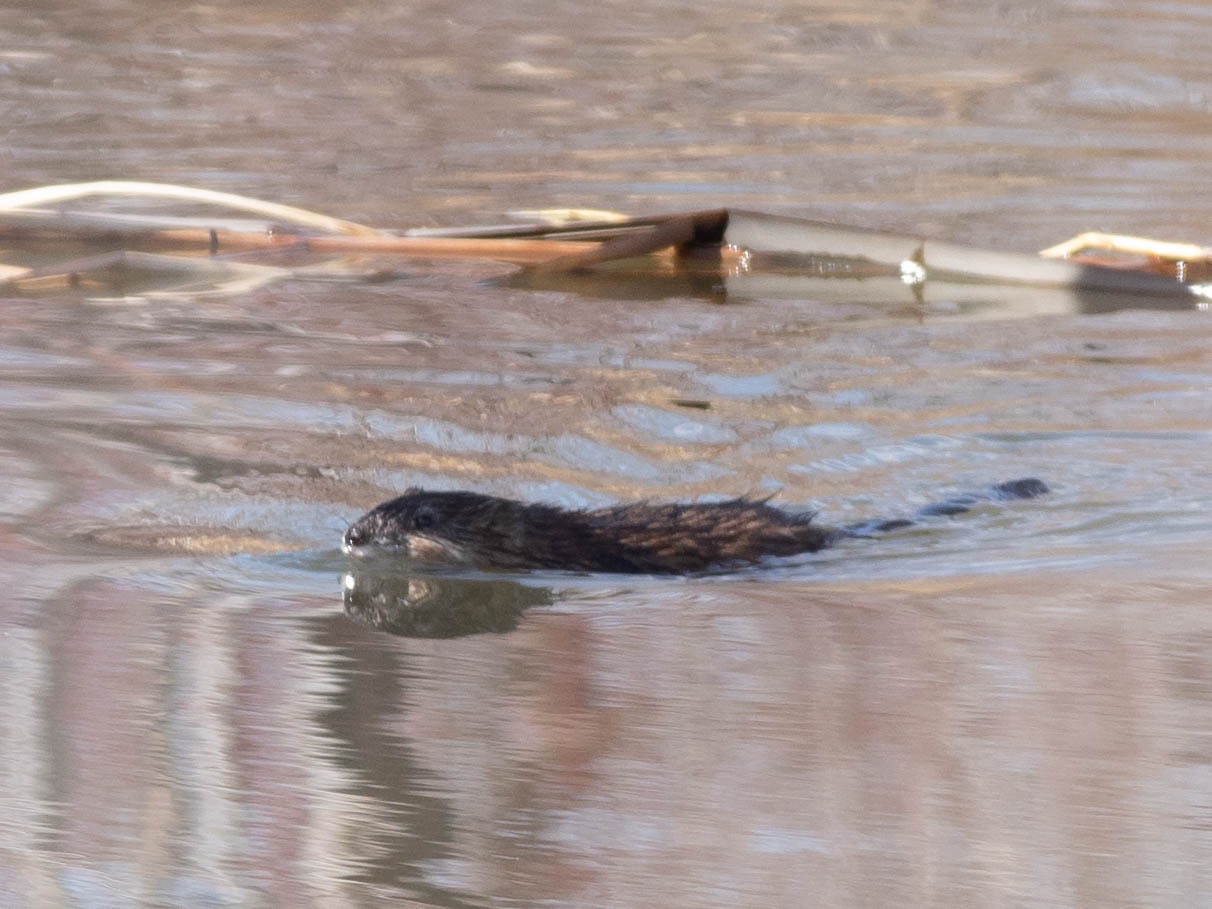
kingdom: Animalia
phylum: Chordata
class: Mammalia
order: Rodentia
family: Cricetidae
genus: Ondatra
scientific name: Ondatra zibethicus
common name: Muskrat
